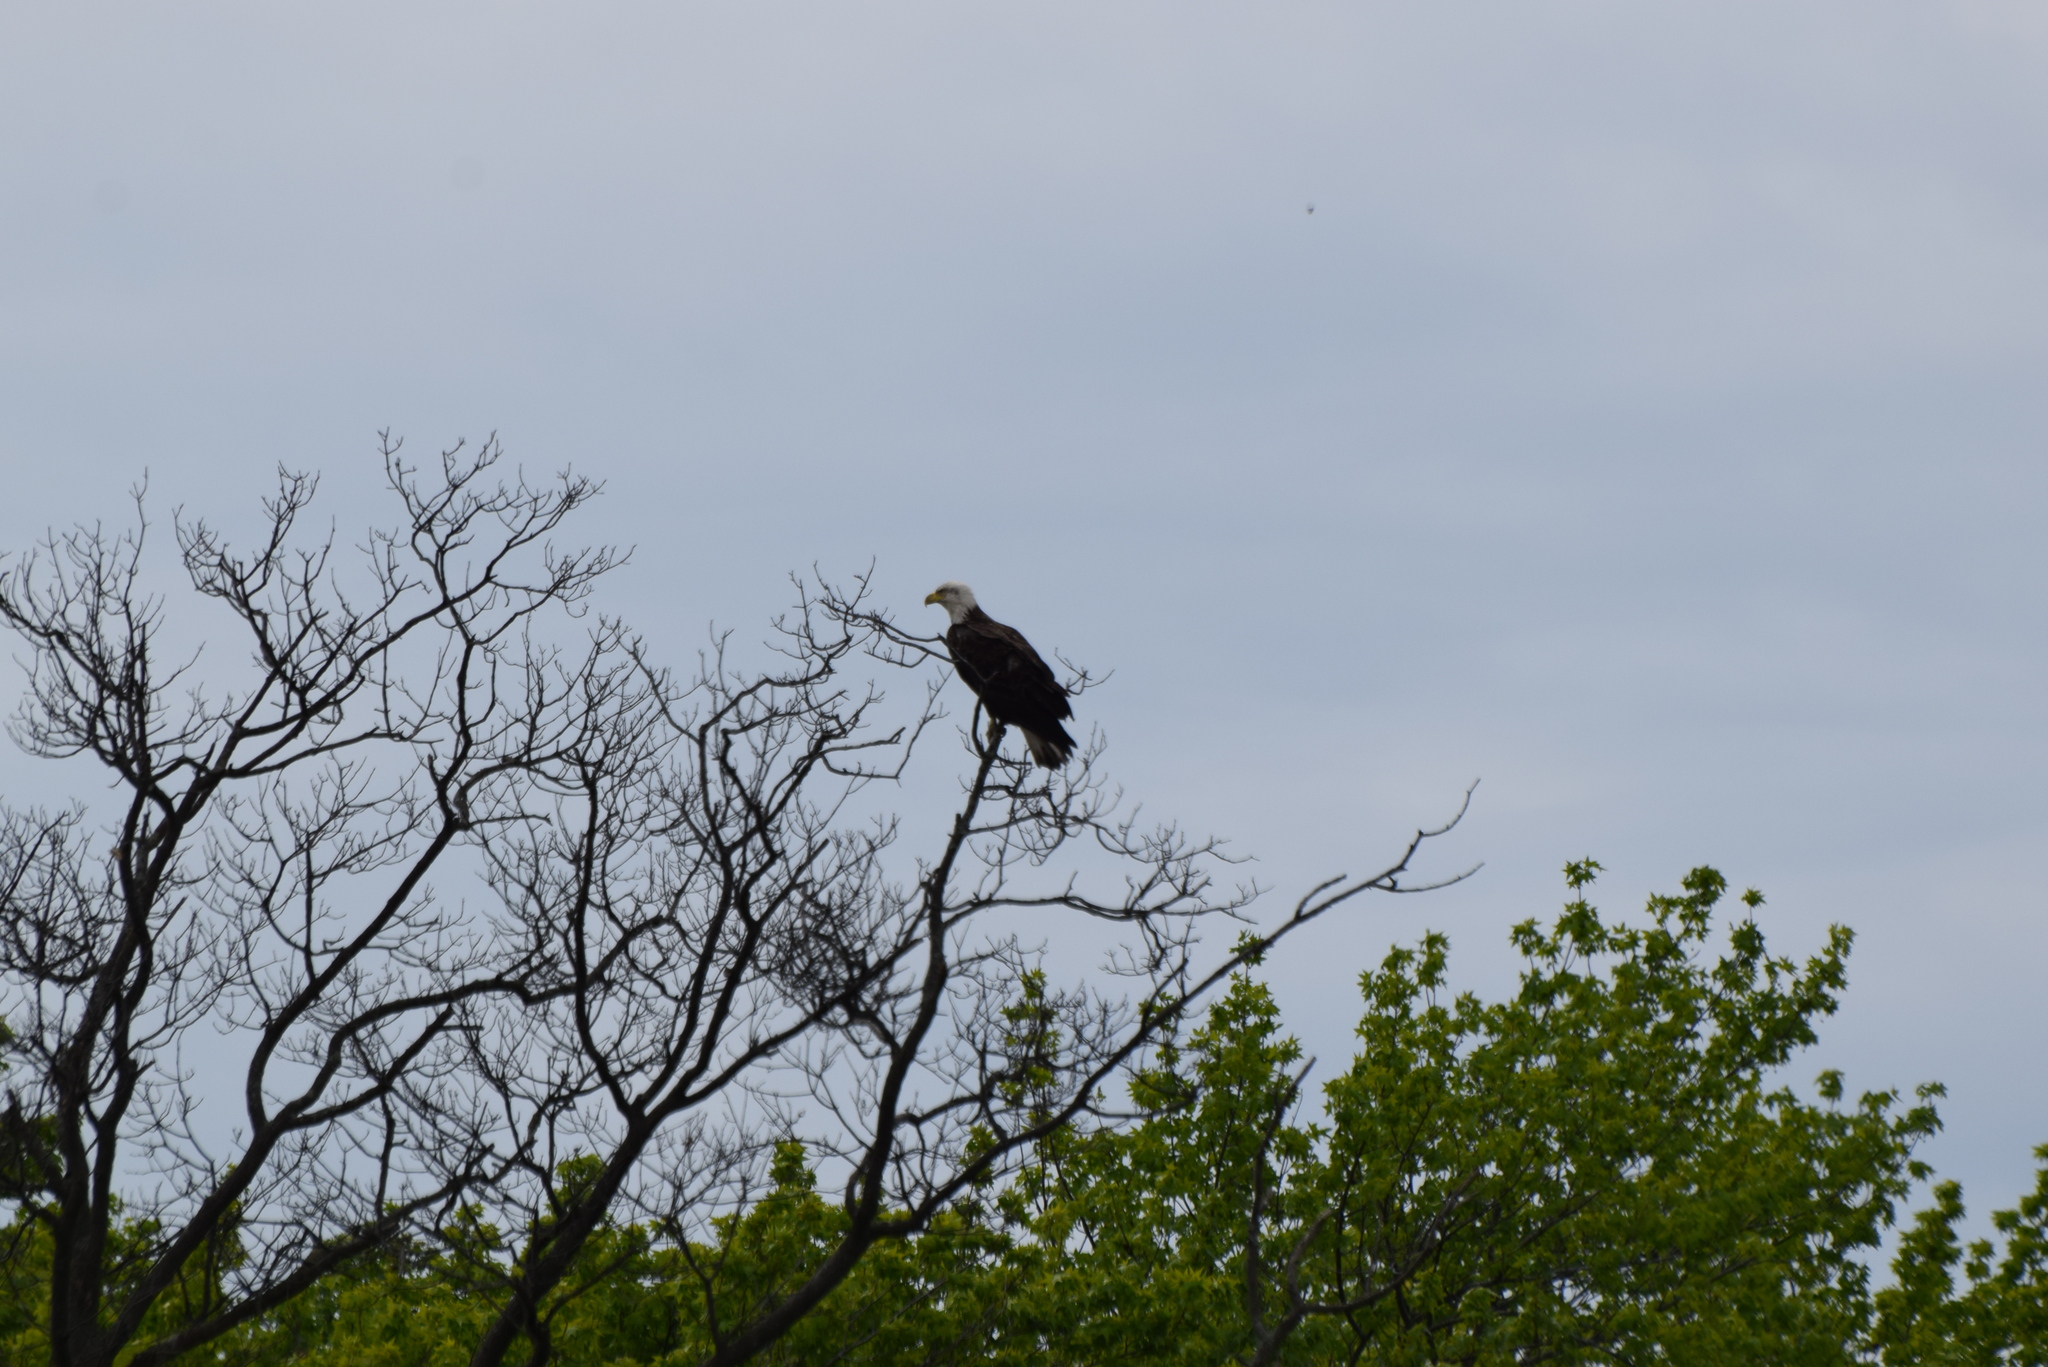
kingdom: Animalia
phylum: Chordata
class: Aves
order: Accipitriformes
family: Accipitridae
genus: Haliaeetus
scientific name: Haliaeetus leucocephalus
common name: Bald eagle
